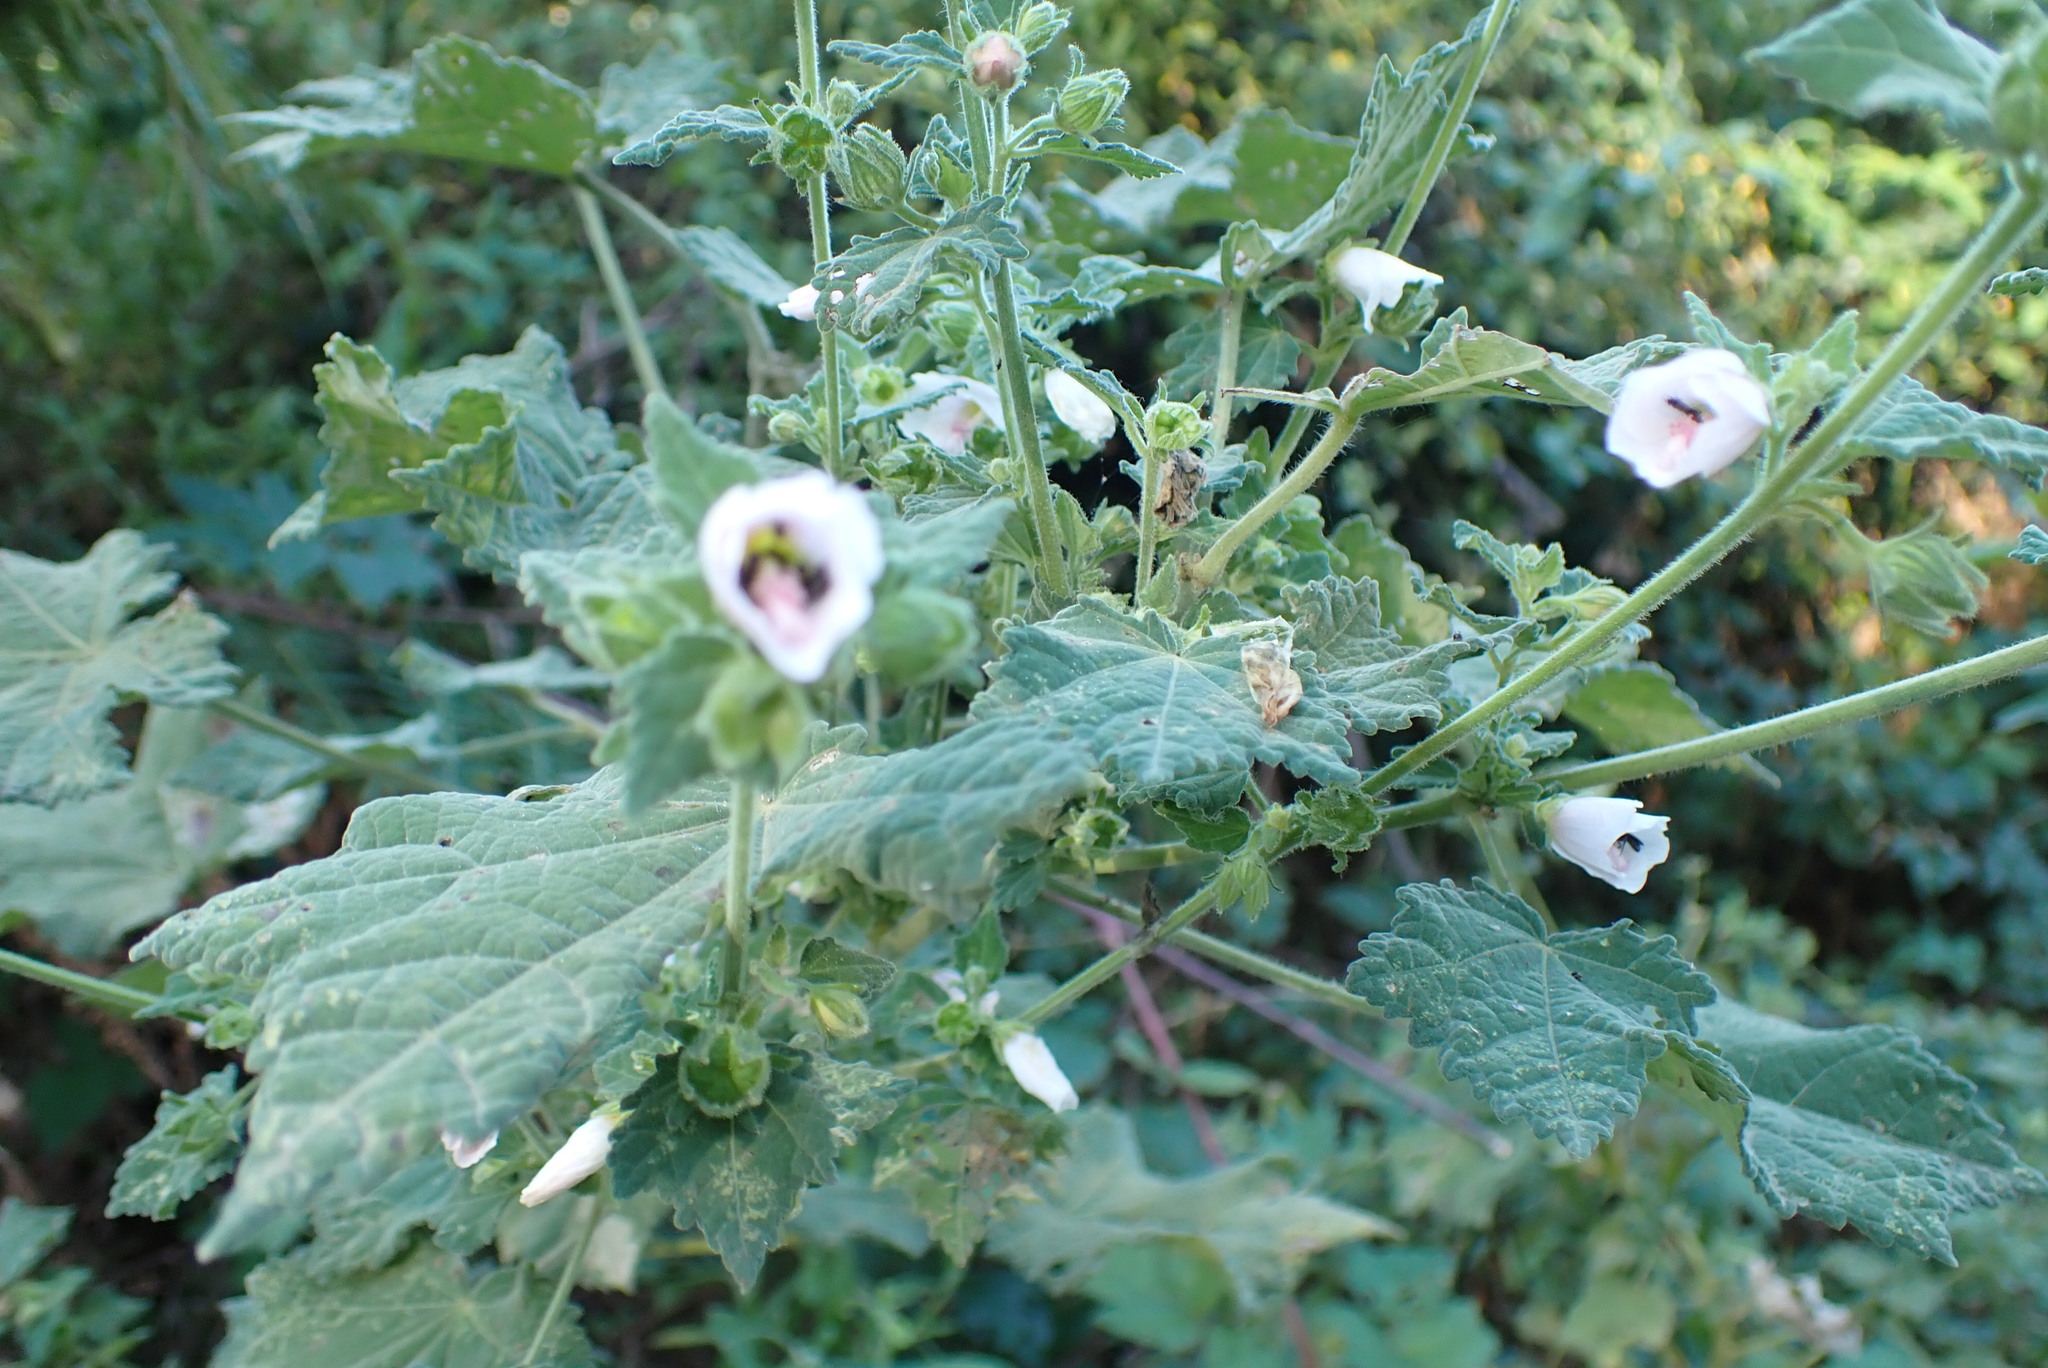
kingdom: Plantae
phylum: Tracheophyta
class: Magnoliopsida
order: Malvales
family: Malvaceae
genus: Pavonia
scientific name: Pavonia columella
